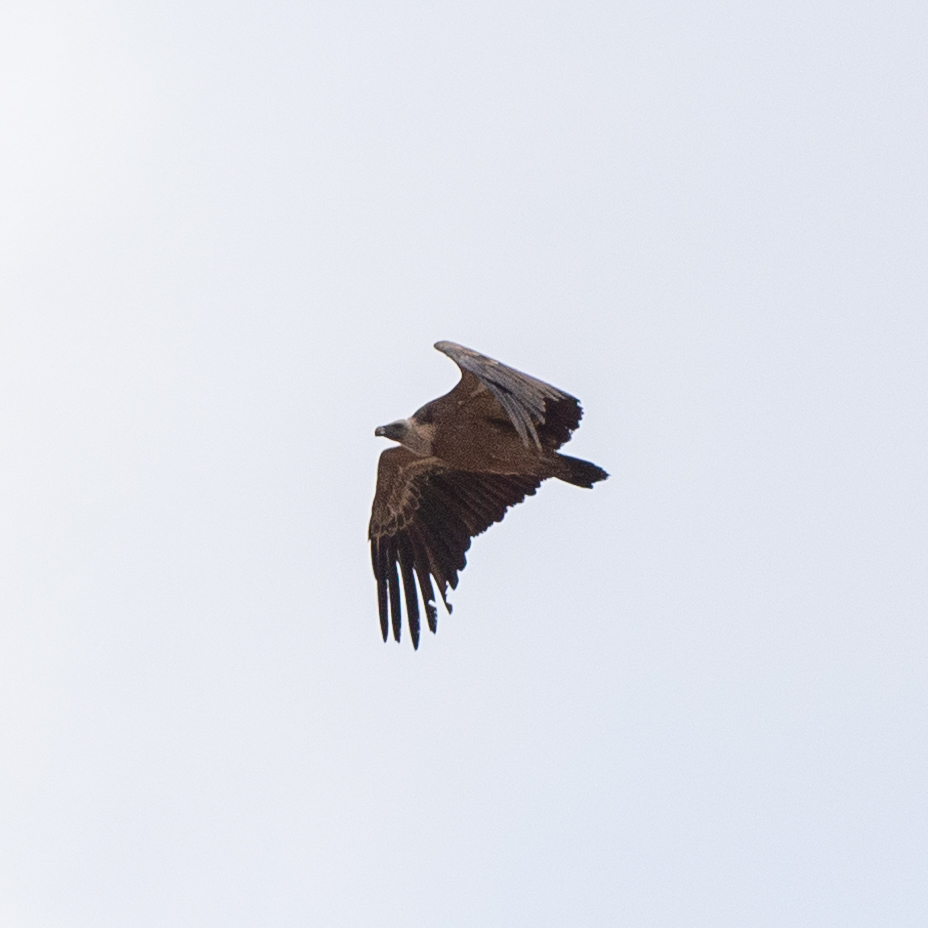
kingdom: Animalia
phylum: Chordata
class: Aves
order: Accipitriformes
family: Accipitridae
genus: Gyps
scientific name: Gyps fulvus
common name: Griffon vulture
